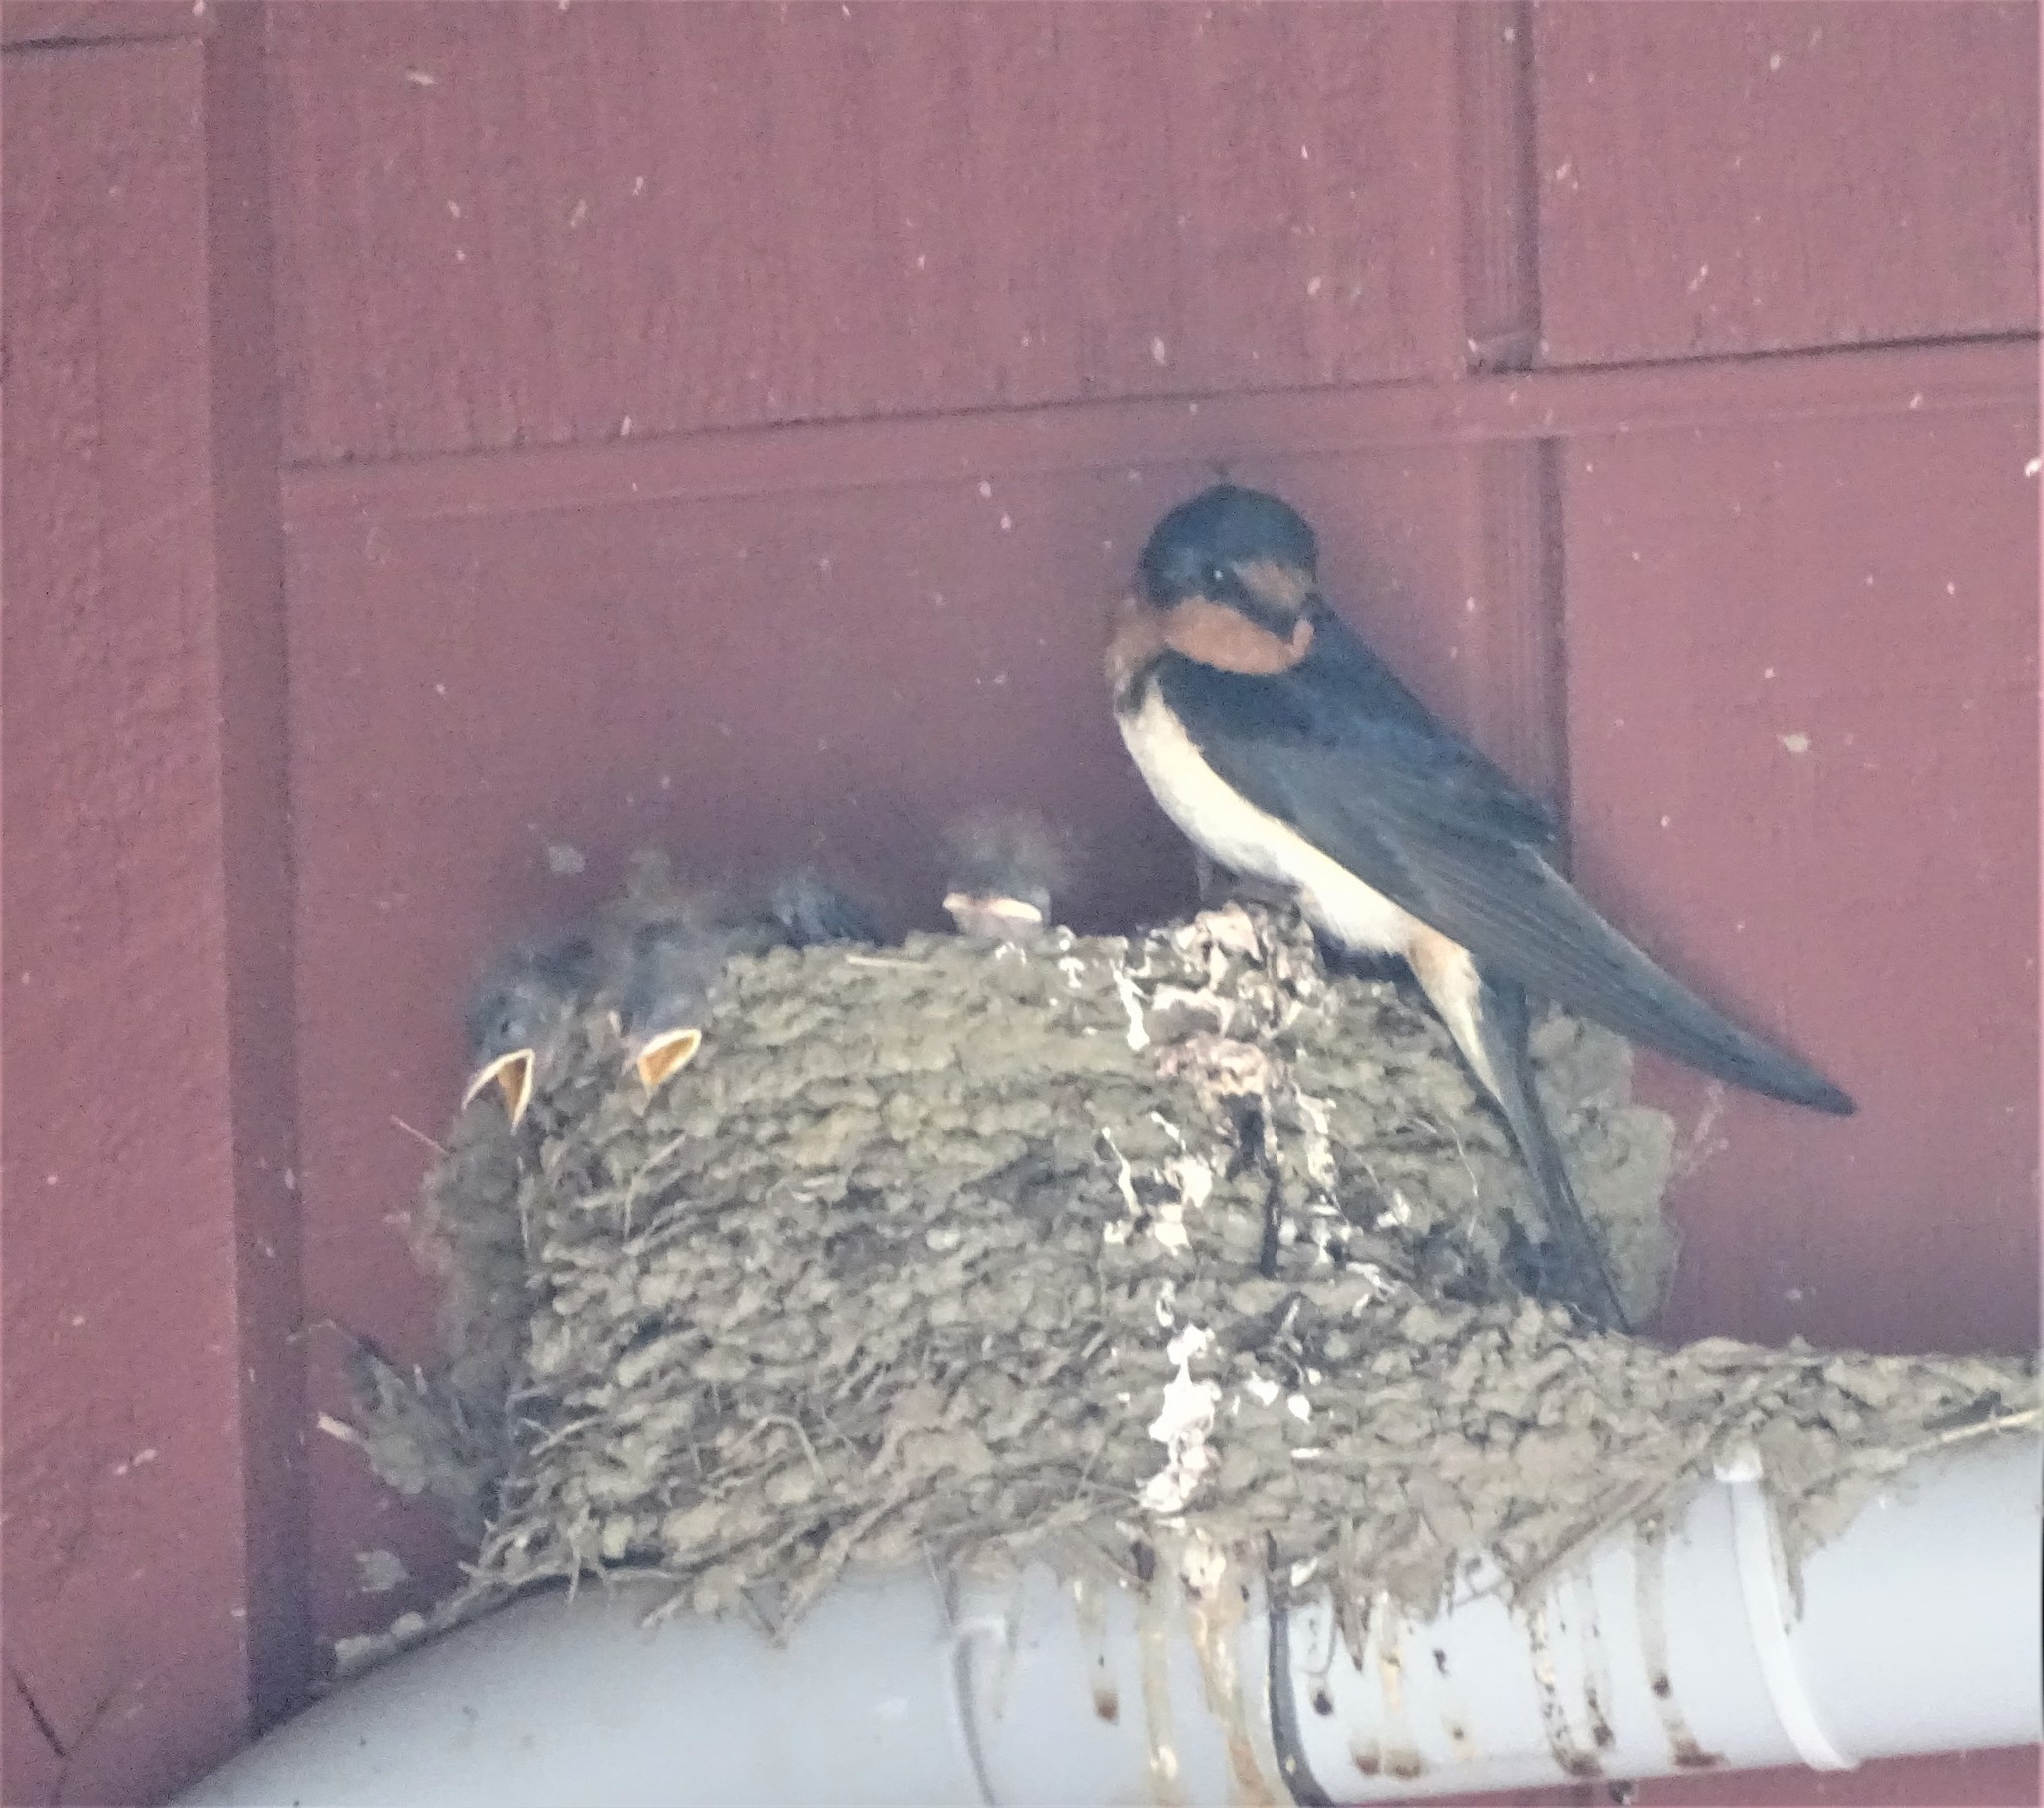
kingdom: Animalia
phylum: Chordata
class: Aves
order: Passeriformes
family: Hirundinidae
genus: Hirundo
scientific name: Hirundo rustica
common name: Barn swallow
